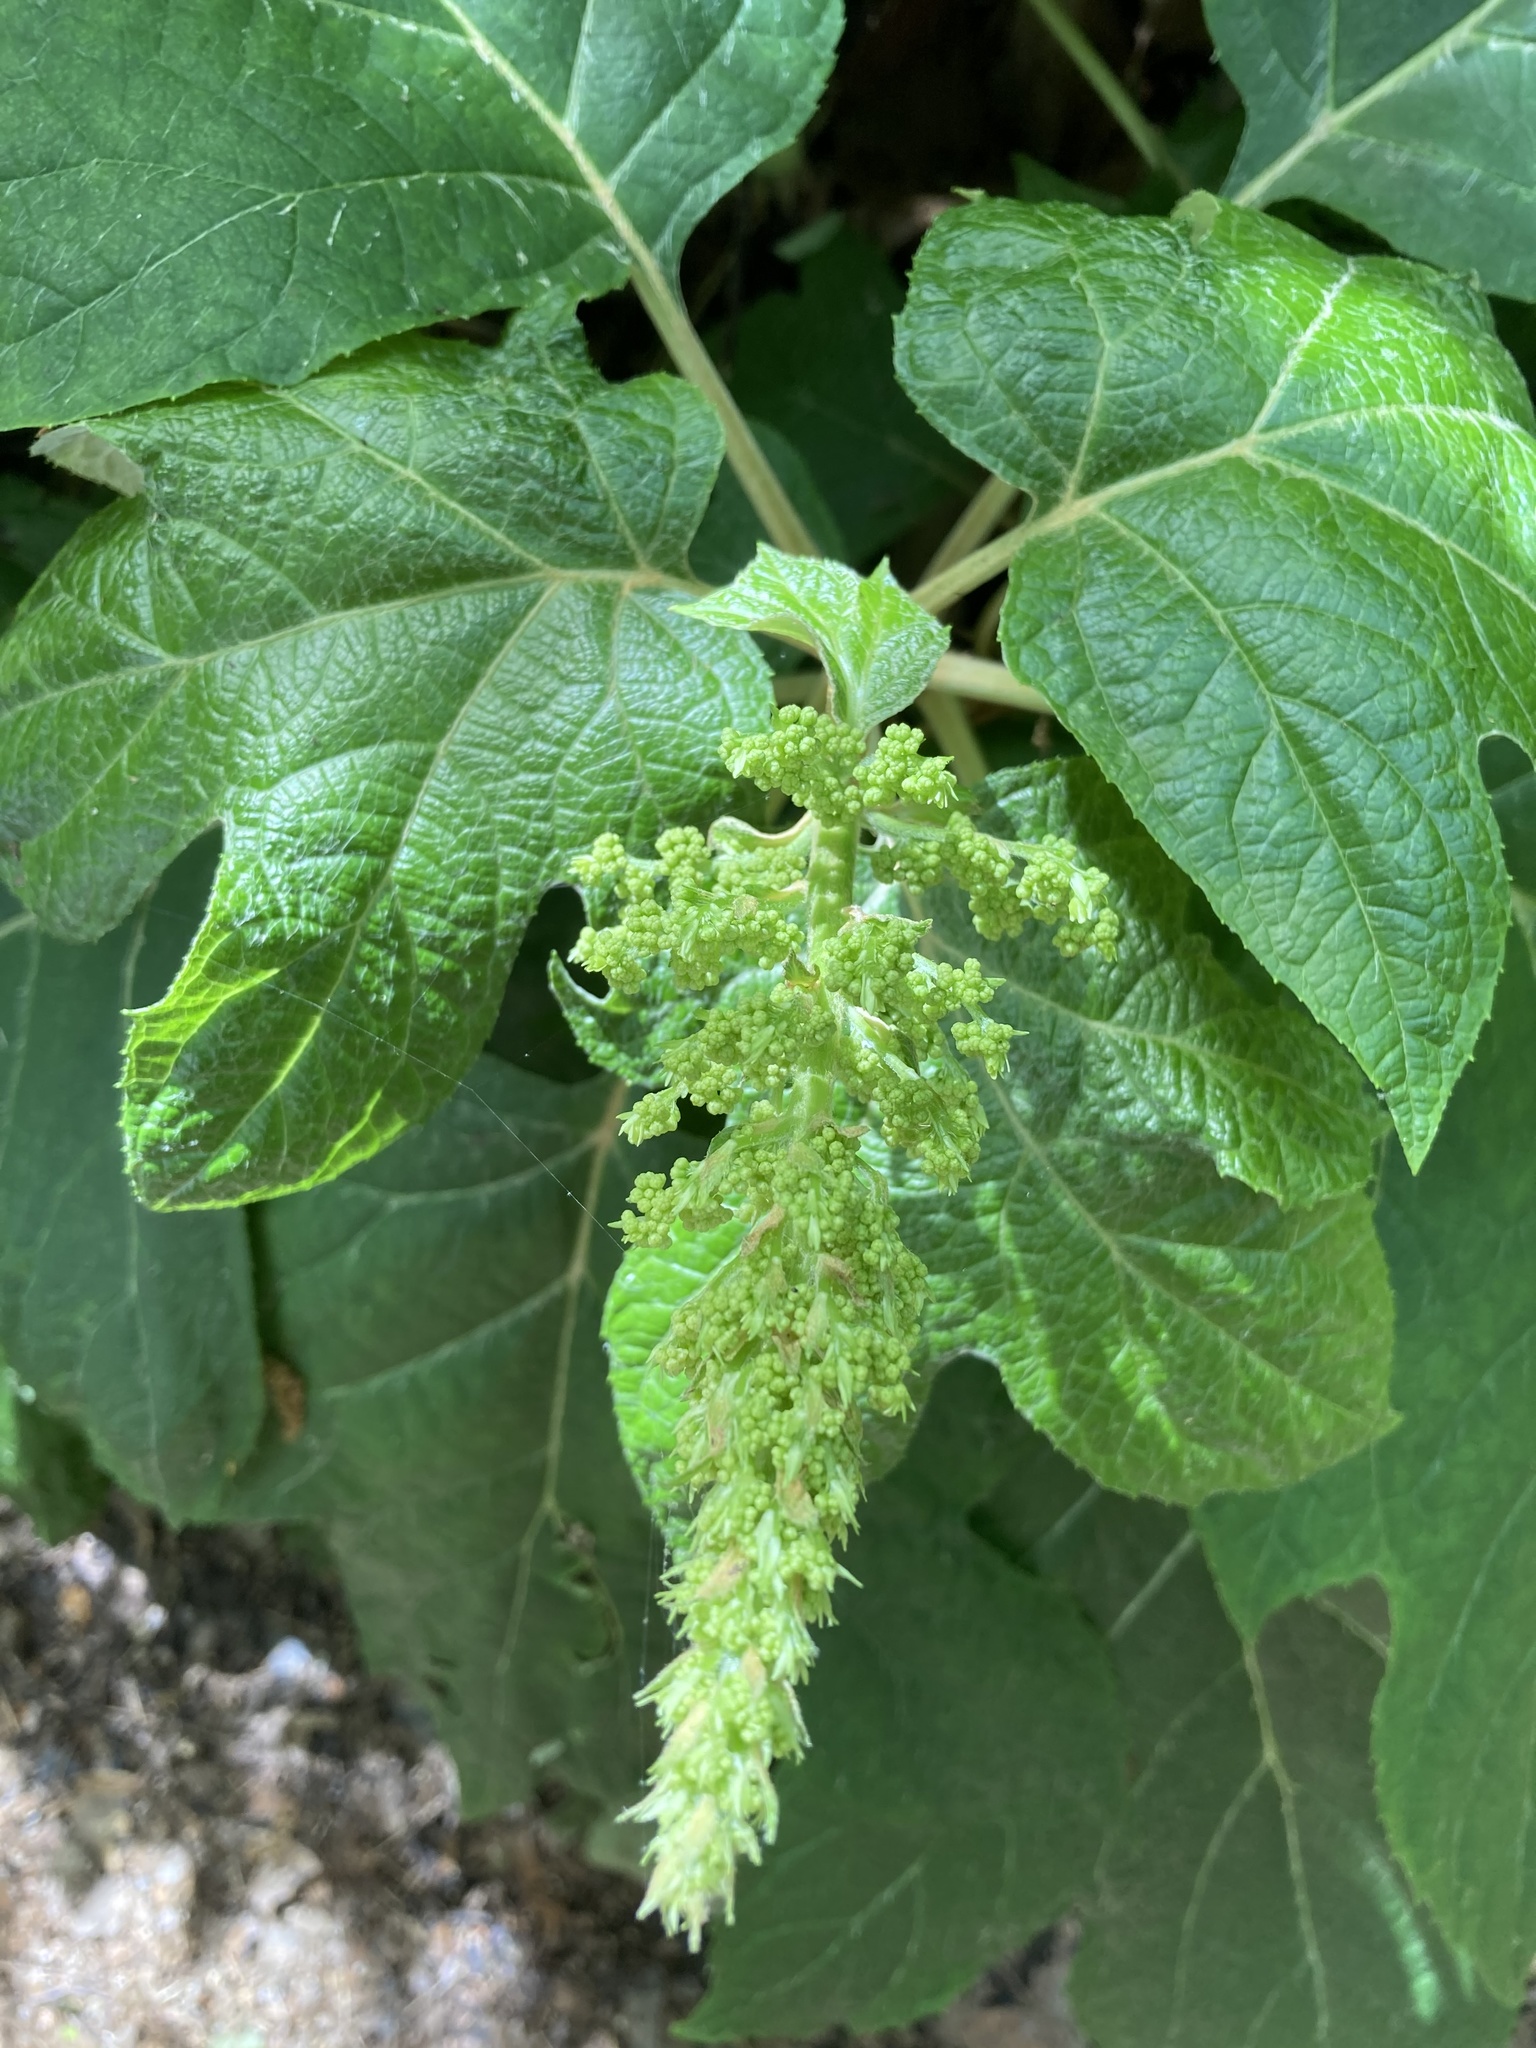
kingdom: Plantae
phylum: Tracheophyta
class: Magnoliopsida
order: Cornales
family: Hydrangeaceae
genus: Hydrangea
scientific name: Hydrangea quercifolia
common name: Oak-leaf hydrangea
